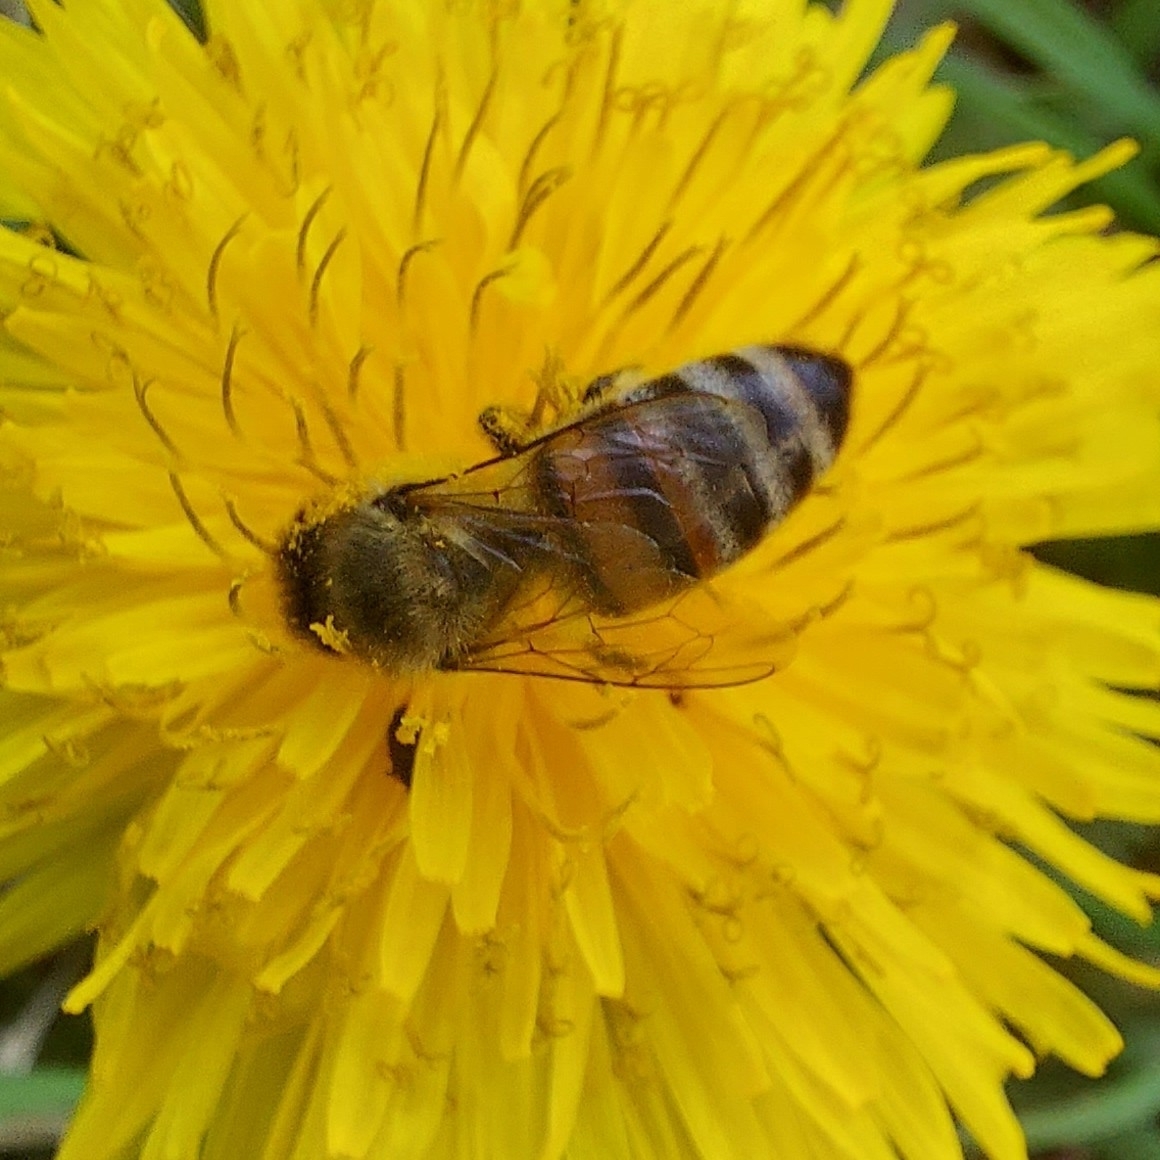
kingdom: Animalia
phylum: Arthropoda
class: Insecta
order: Hymenoptera
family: Apidae
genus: Apis
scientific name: Apis mellifera
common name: Honey bee
